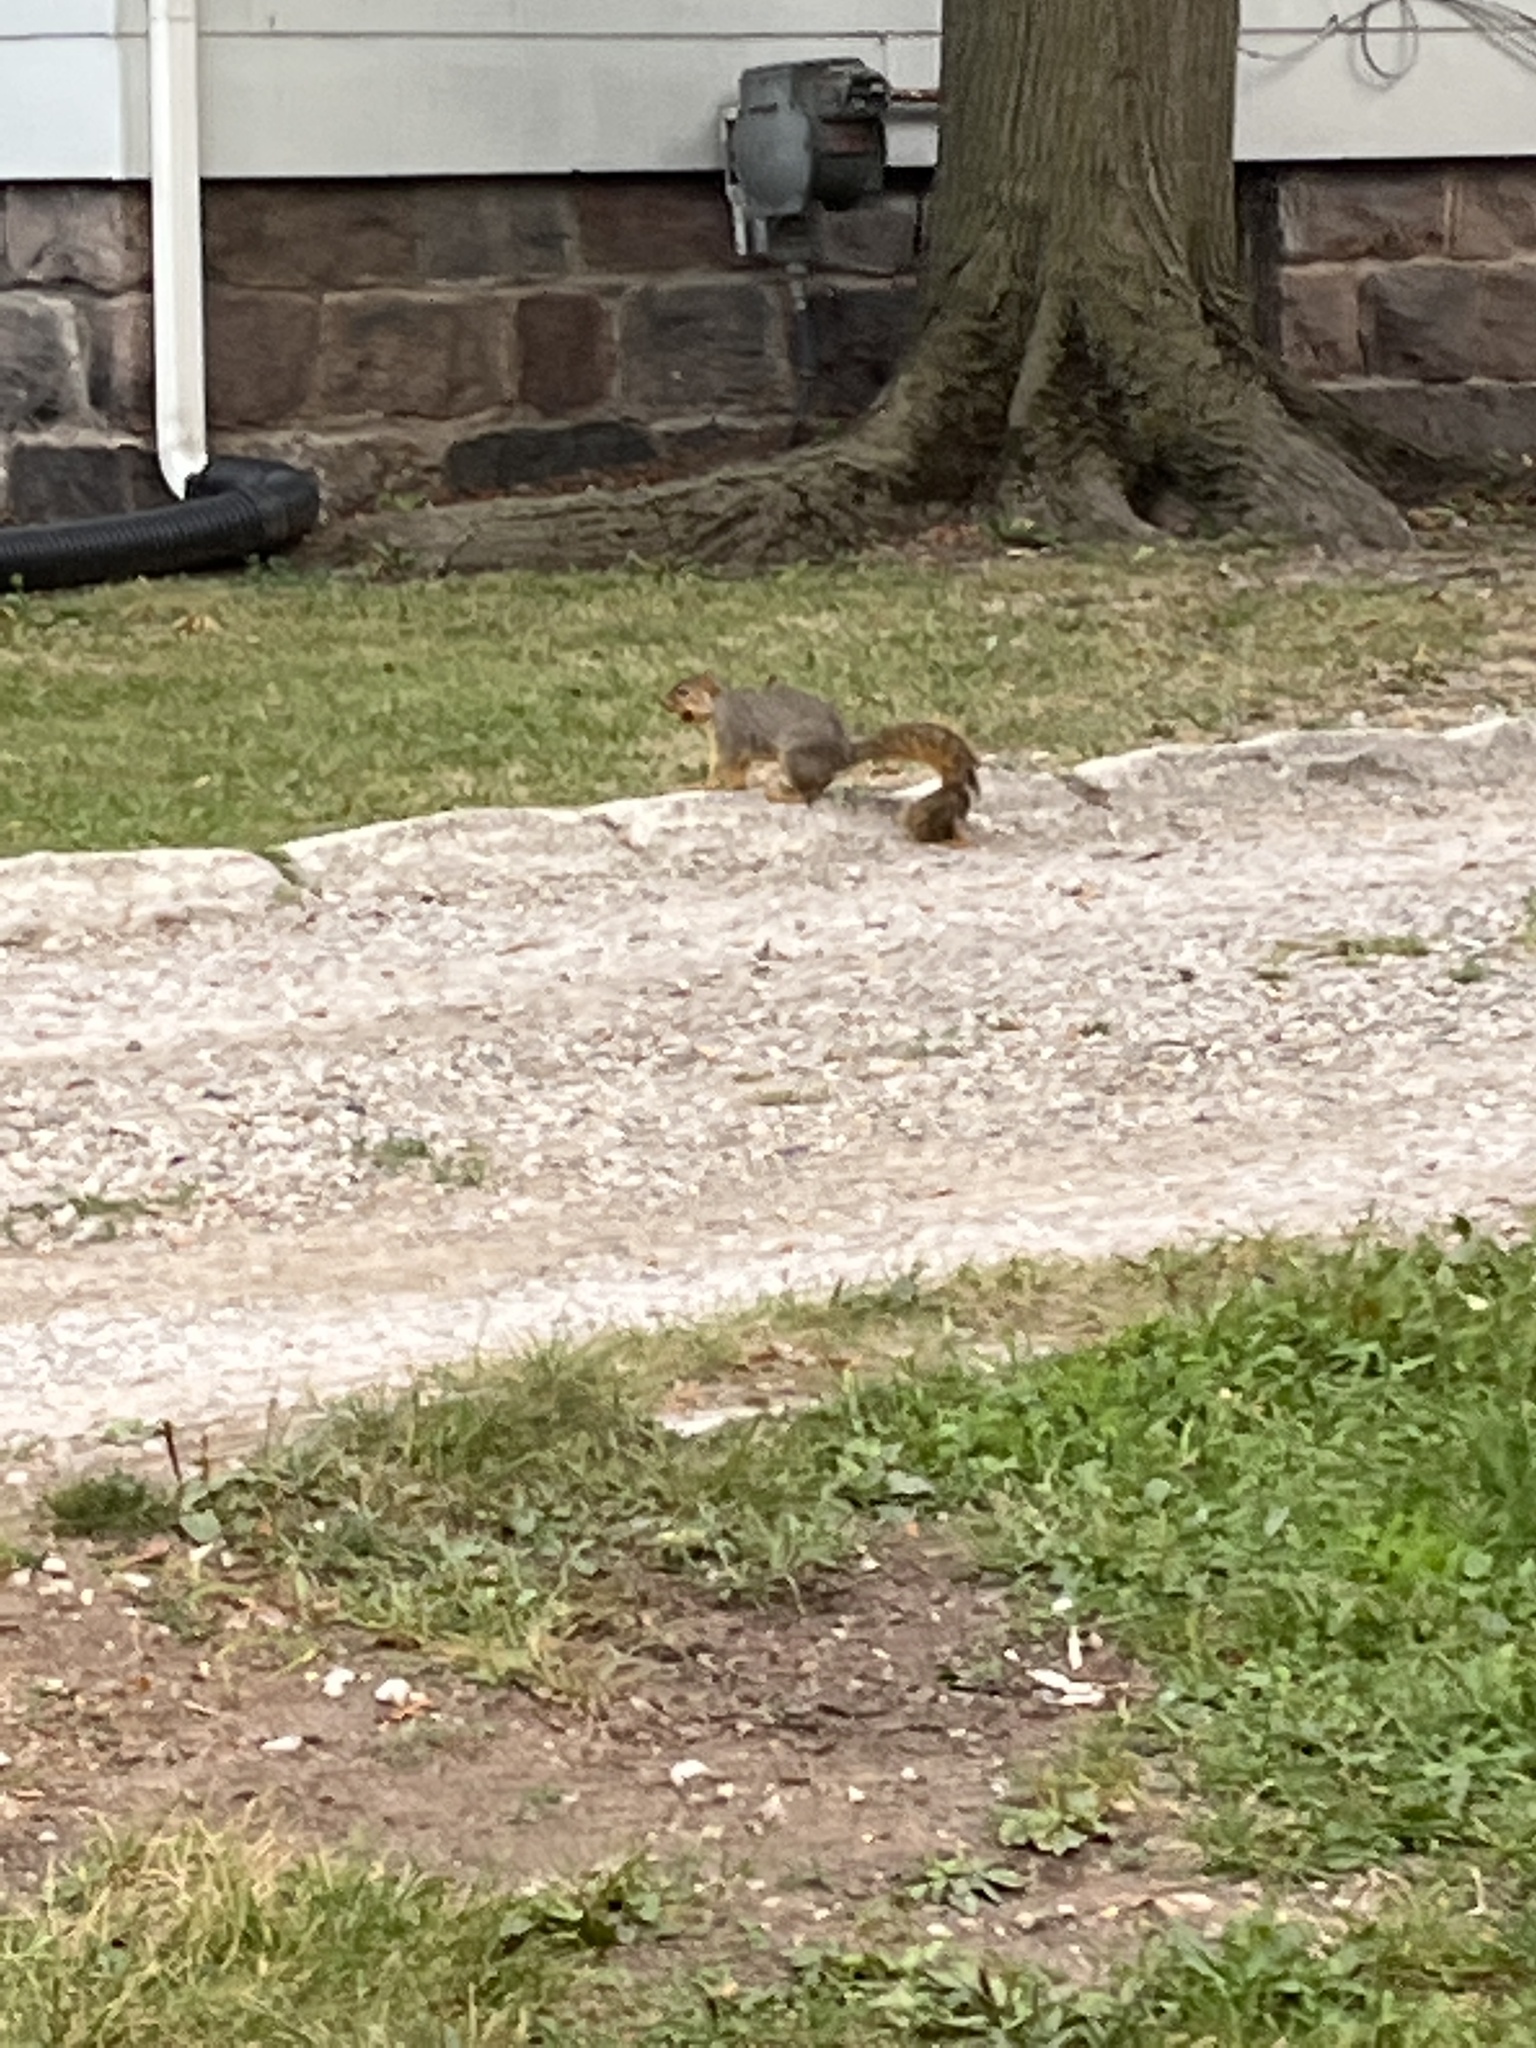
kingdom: Animalia
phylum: Chordata
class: Mammalia
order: Rodentia
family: Sciuridae
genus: Sciurus
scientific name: Sciurus niger
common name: Fox squirrel
